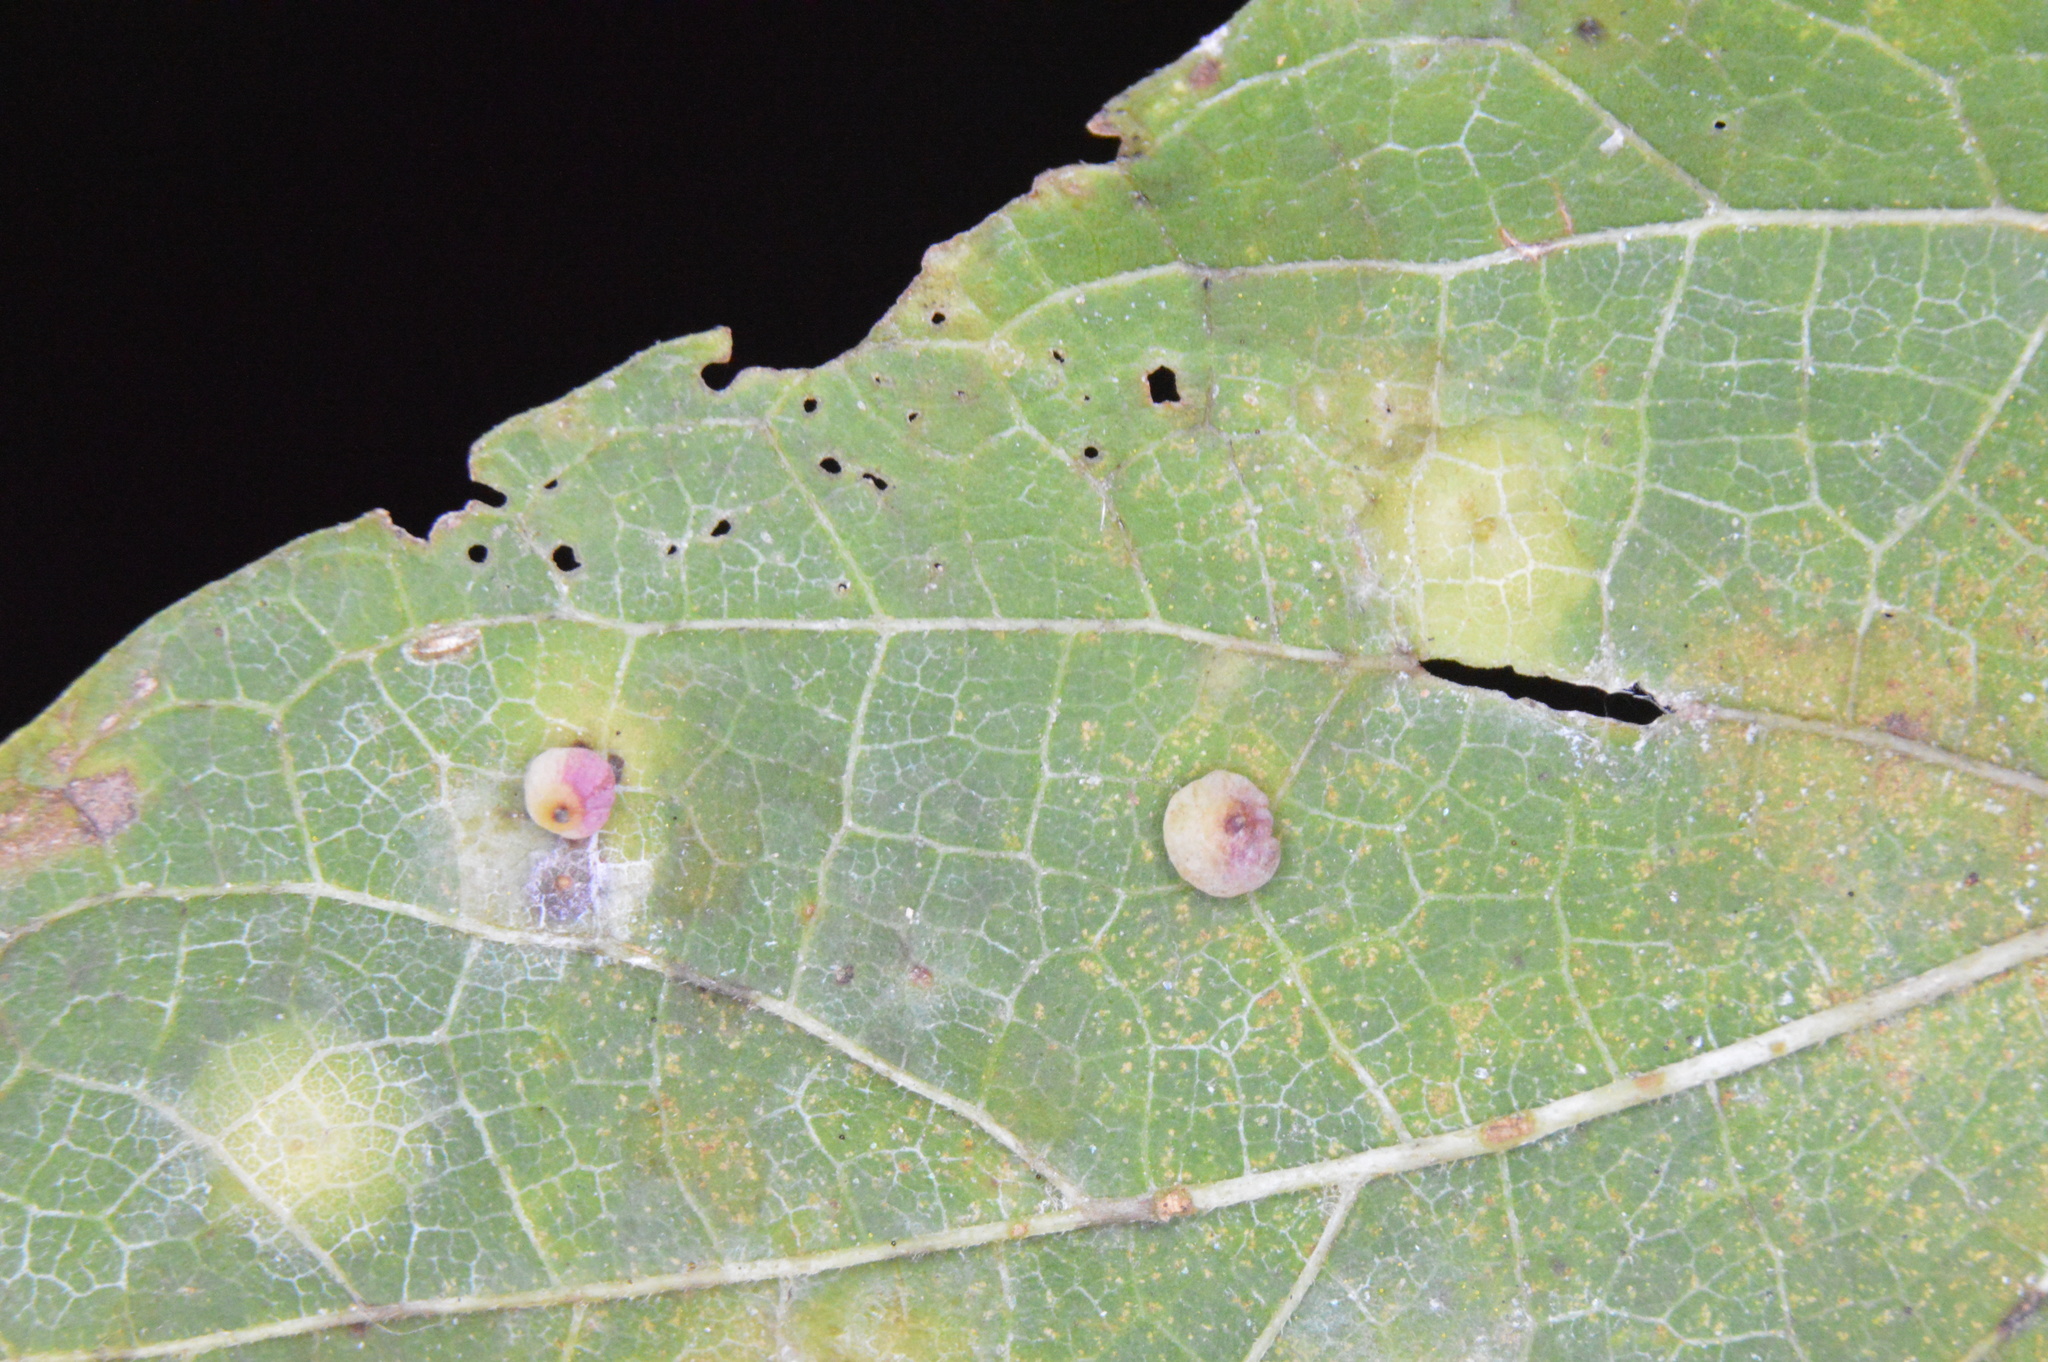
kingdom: Animalia
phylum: Arthropoda
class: Insecta
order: Diptera
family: Cecidomyiidae
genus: Celticecis
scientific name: Celticecis globosa
